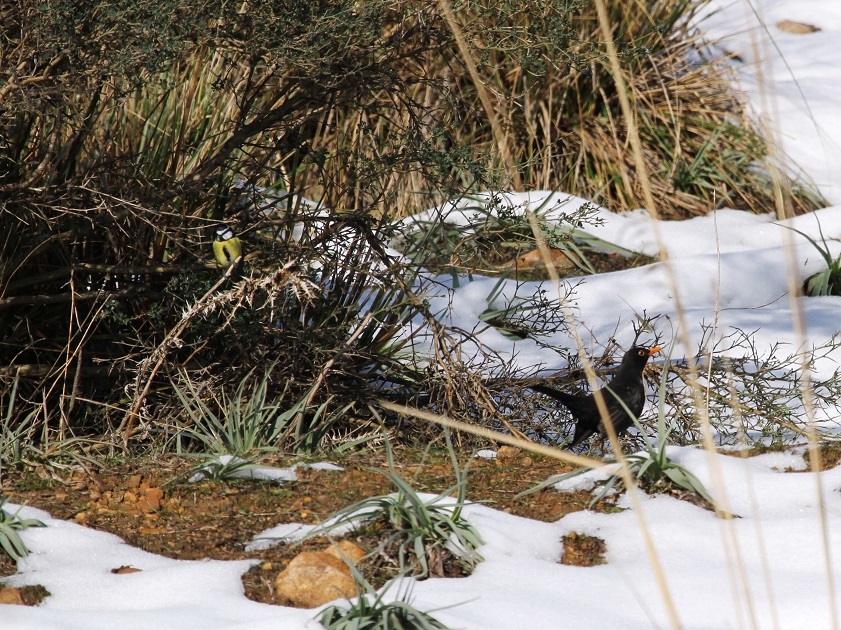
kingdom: Animalia
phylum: Chordata
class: Aves
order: Passeriformes
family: Turdidae
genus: Turdus
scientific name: Turdus merula
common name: Common blackbird
